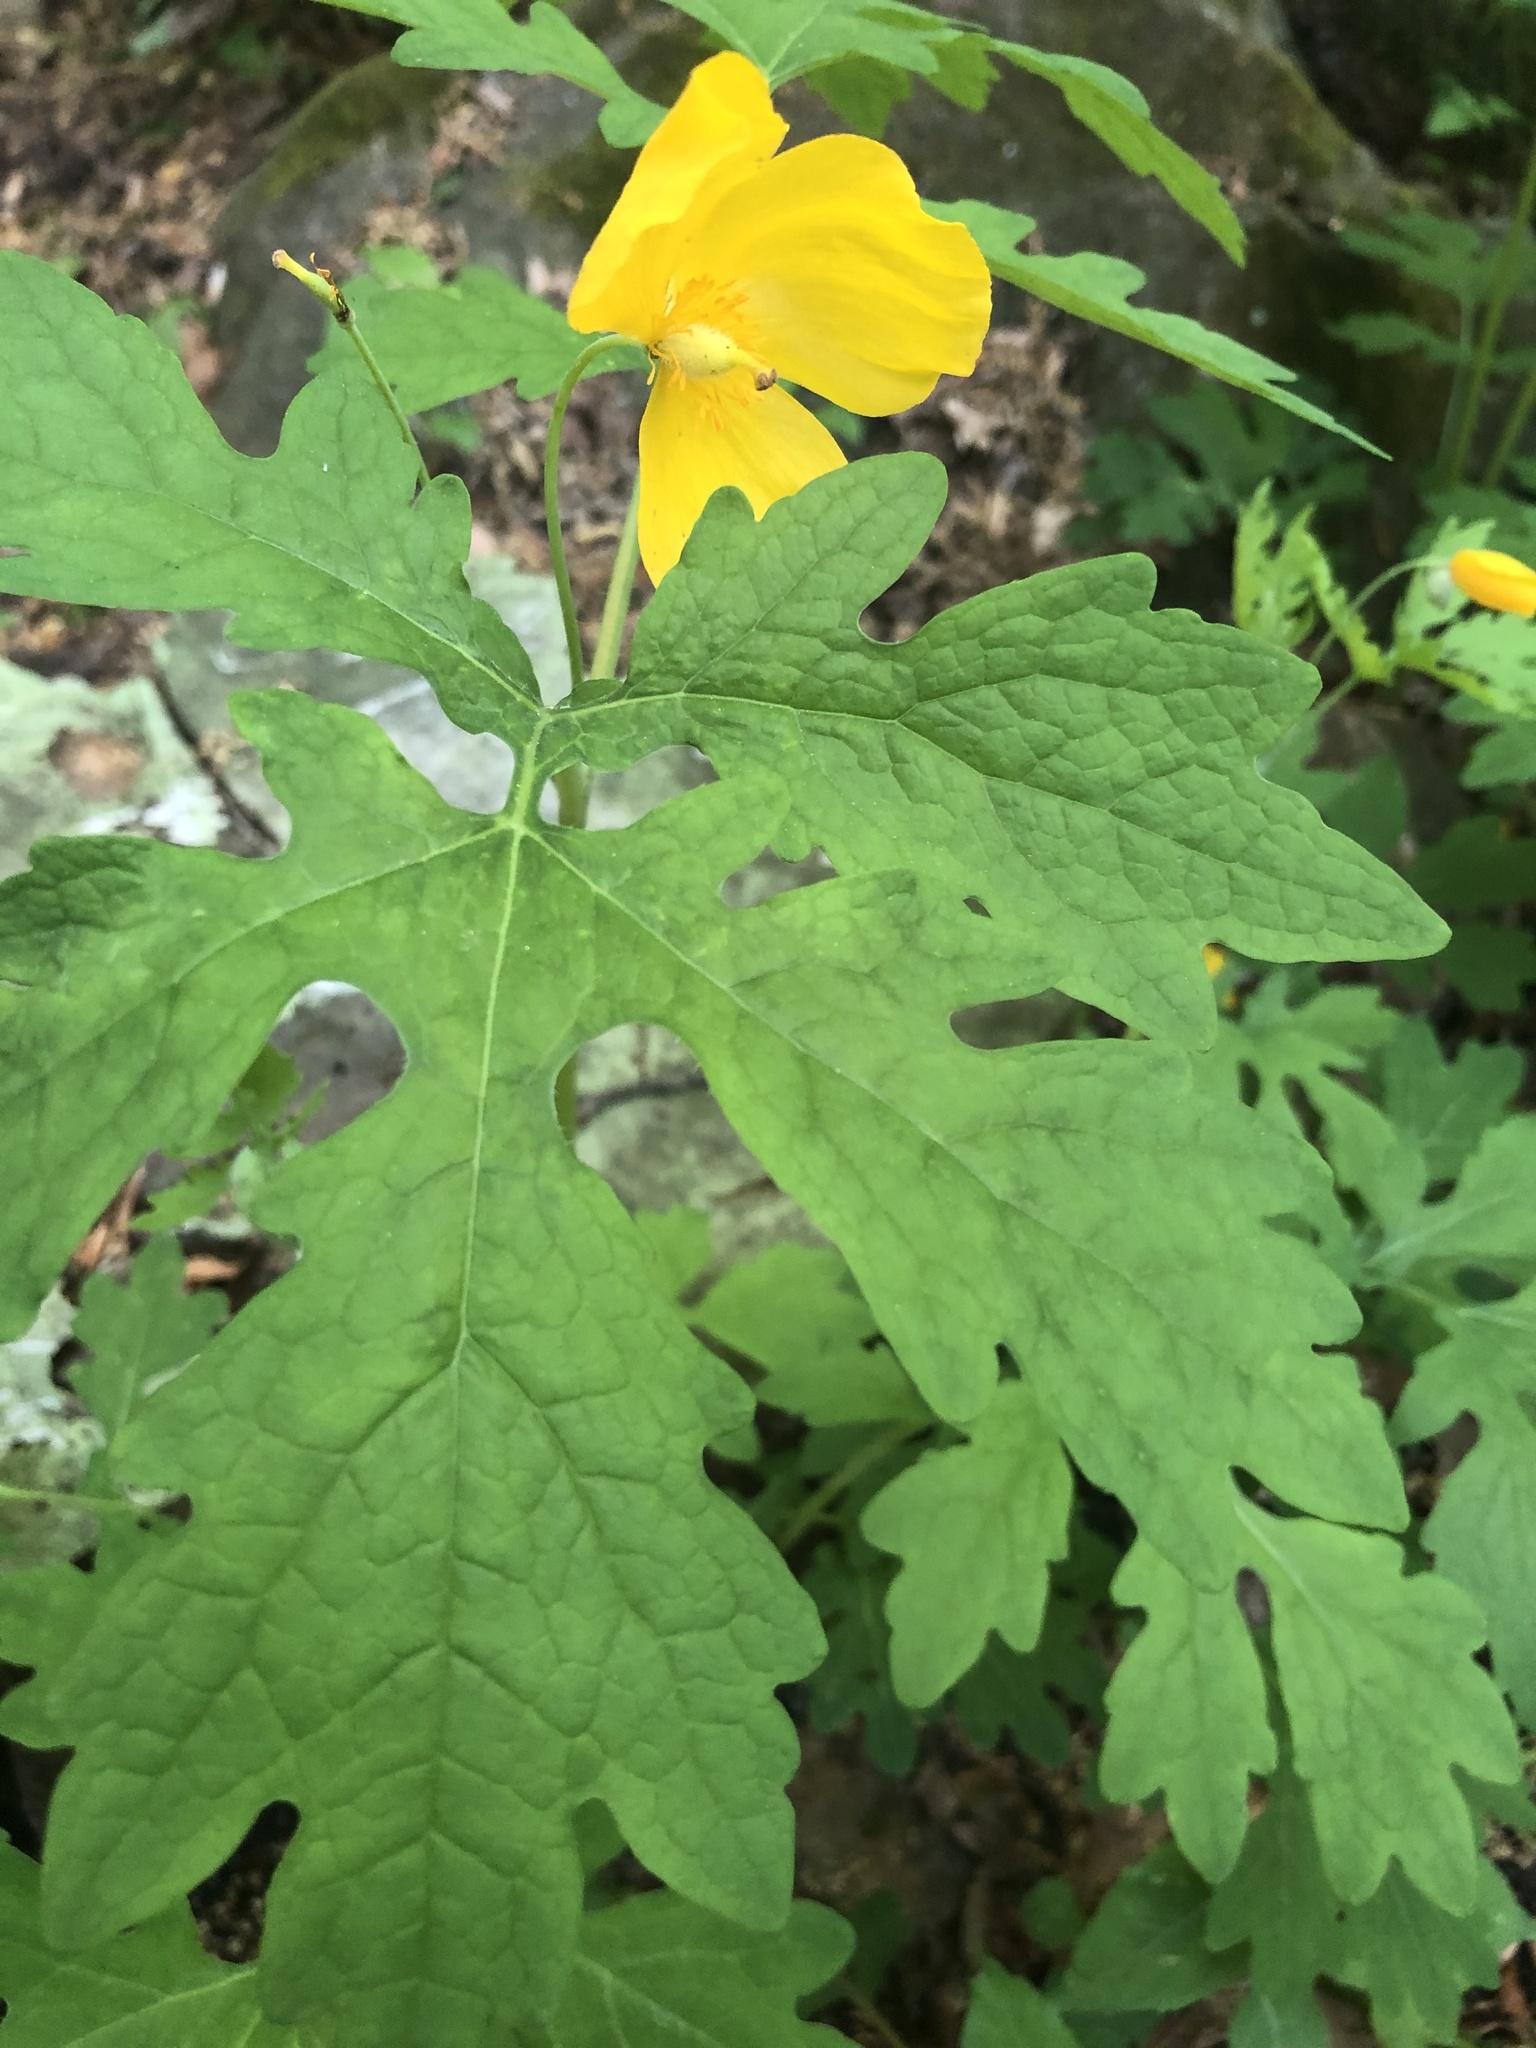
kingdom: Plantae
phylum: Tracheophyta
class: Magnoliopsida
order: Ranunculales
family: Papaveraceae
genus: Stylophorum
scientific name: Stylophorum diphyllum
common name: Celandine poppy
